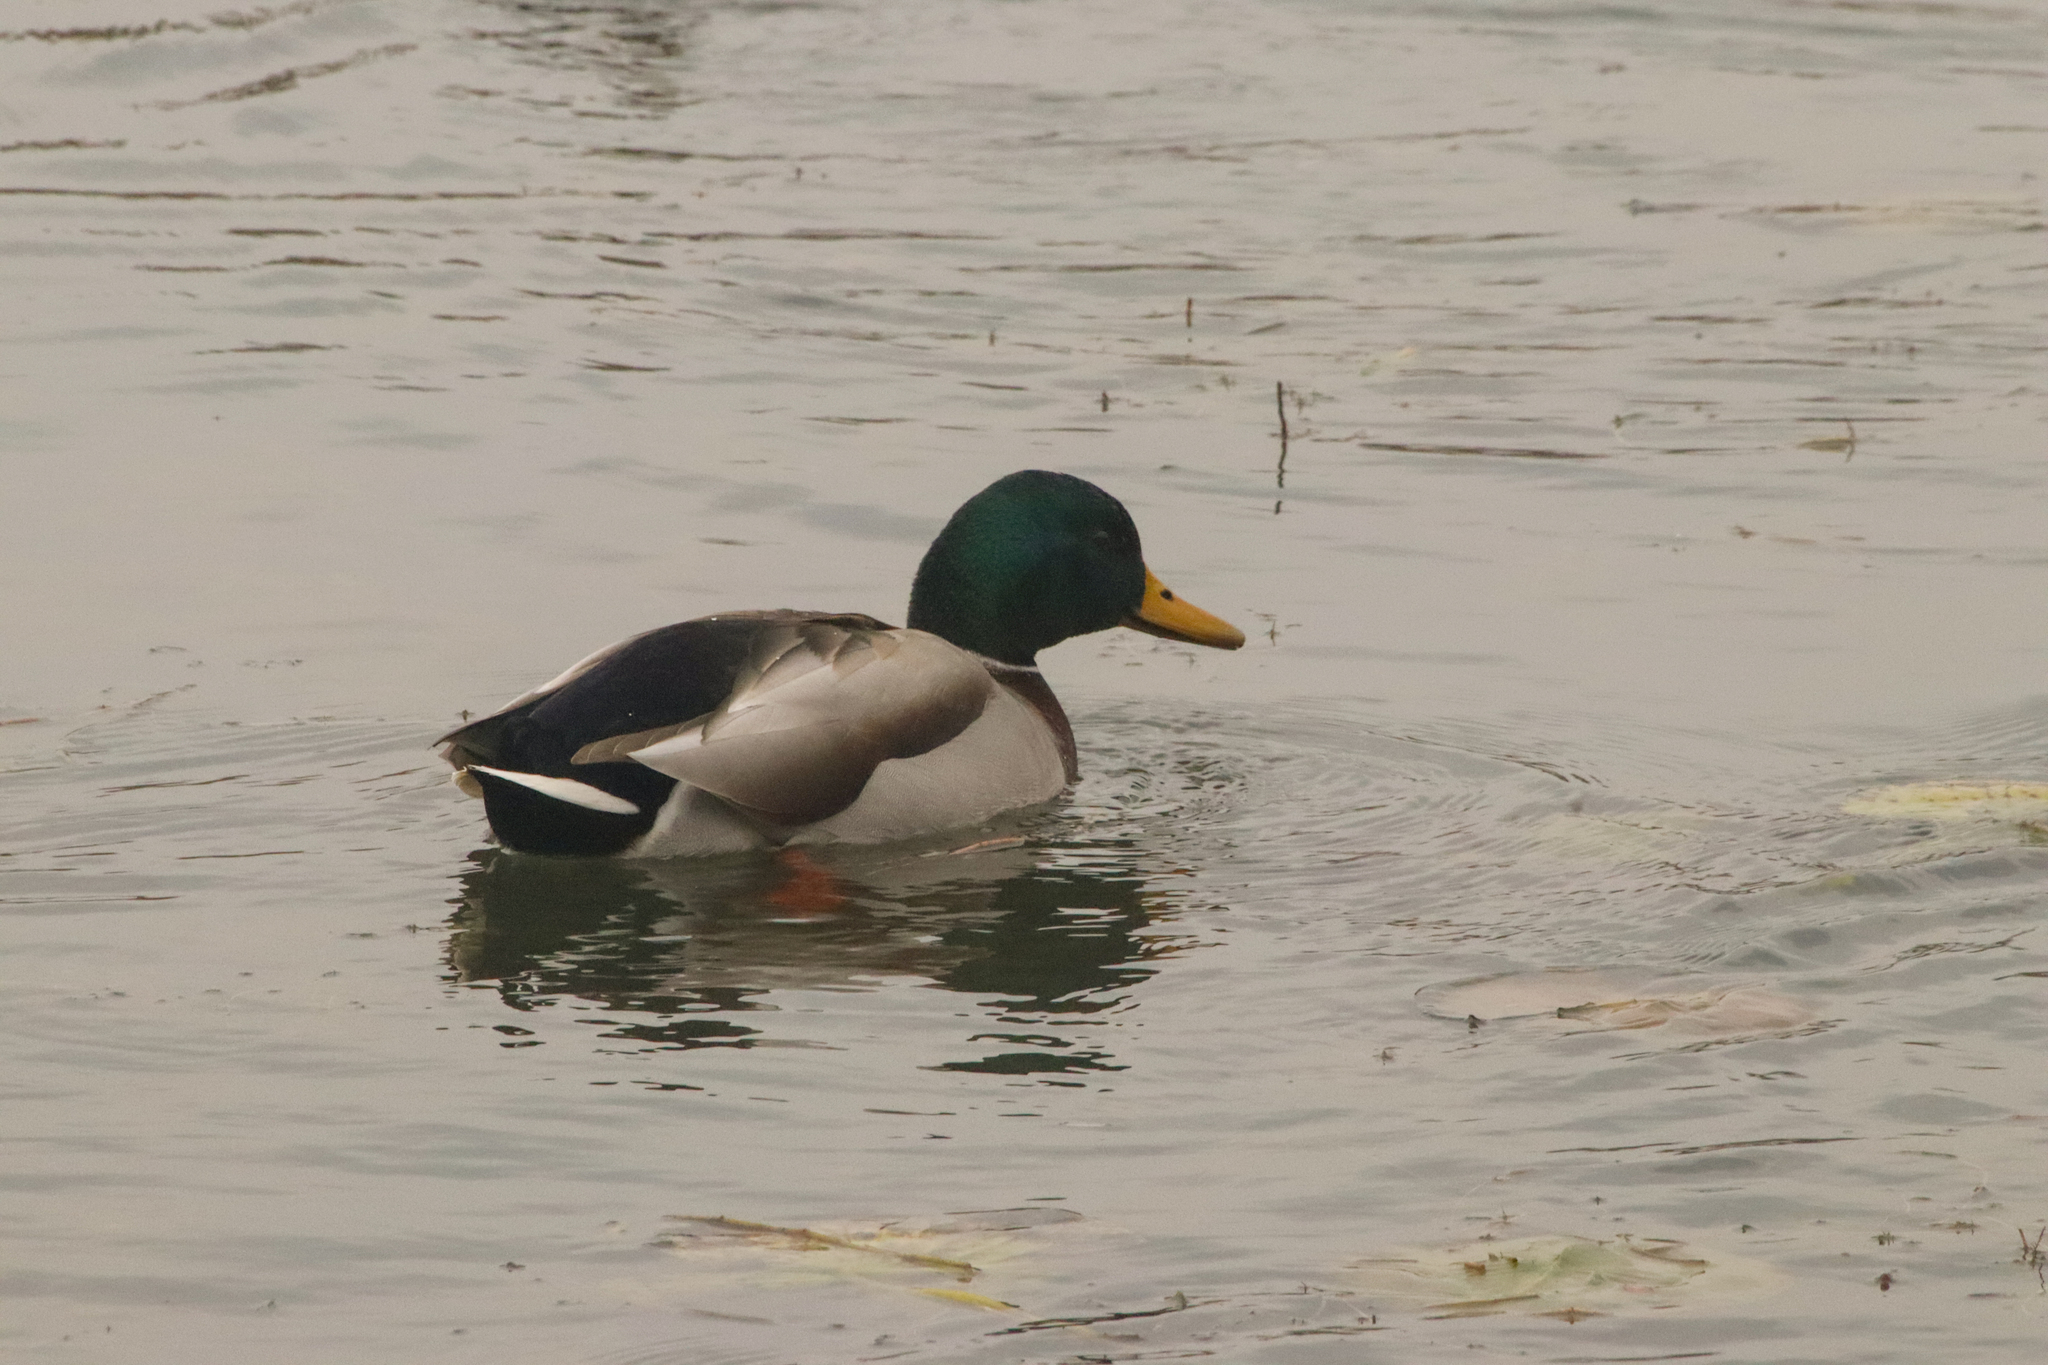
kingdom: Animalia
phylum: Chordata
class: Aves
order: Anseriformes
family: Anatidae
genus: Anas
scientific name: Anas platyrhynchos
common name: Mallard
